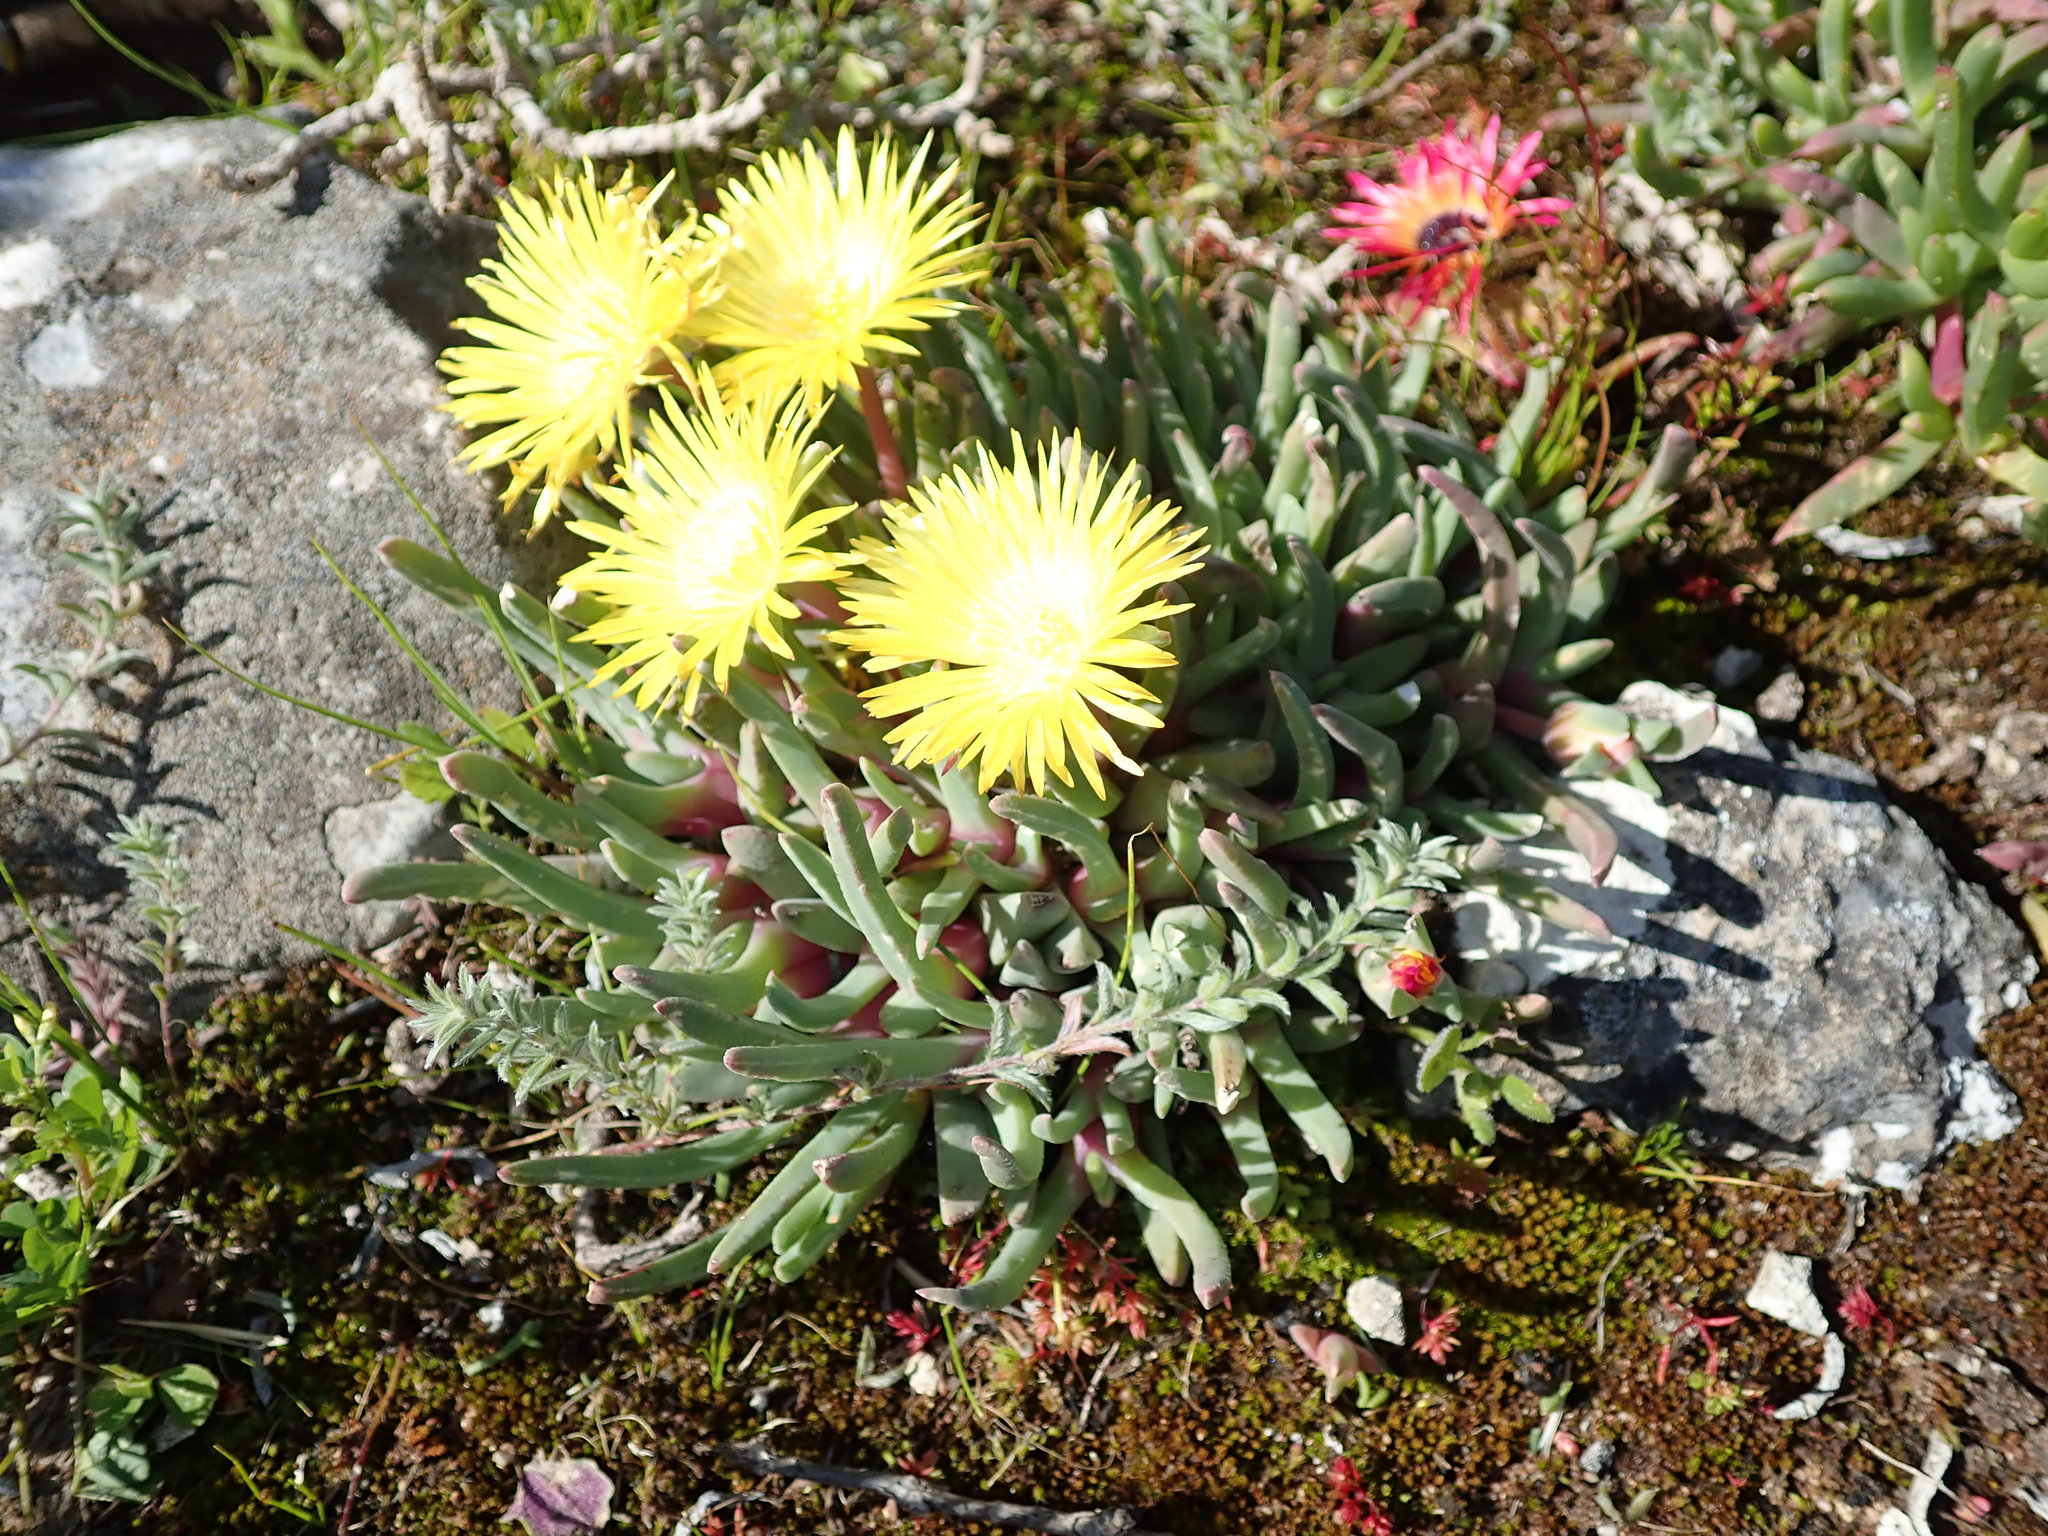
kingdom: Plantae
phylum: Tracheophyta
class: Magnoliopsida
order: Caryophyllales
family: Aizoaceae
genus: Cheiridopsis
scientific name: Cheiridopsis rostrata
